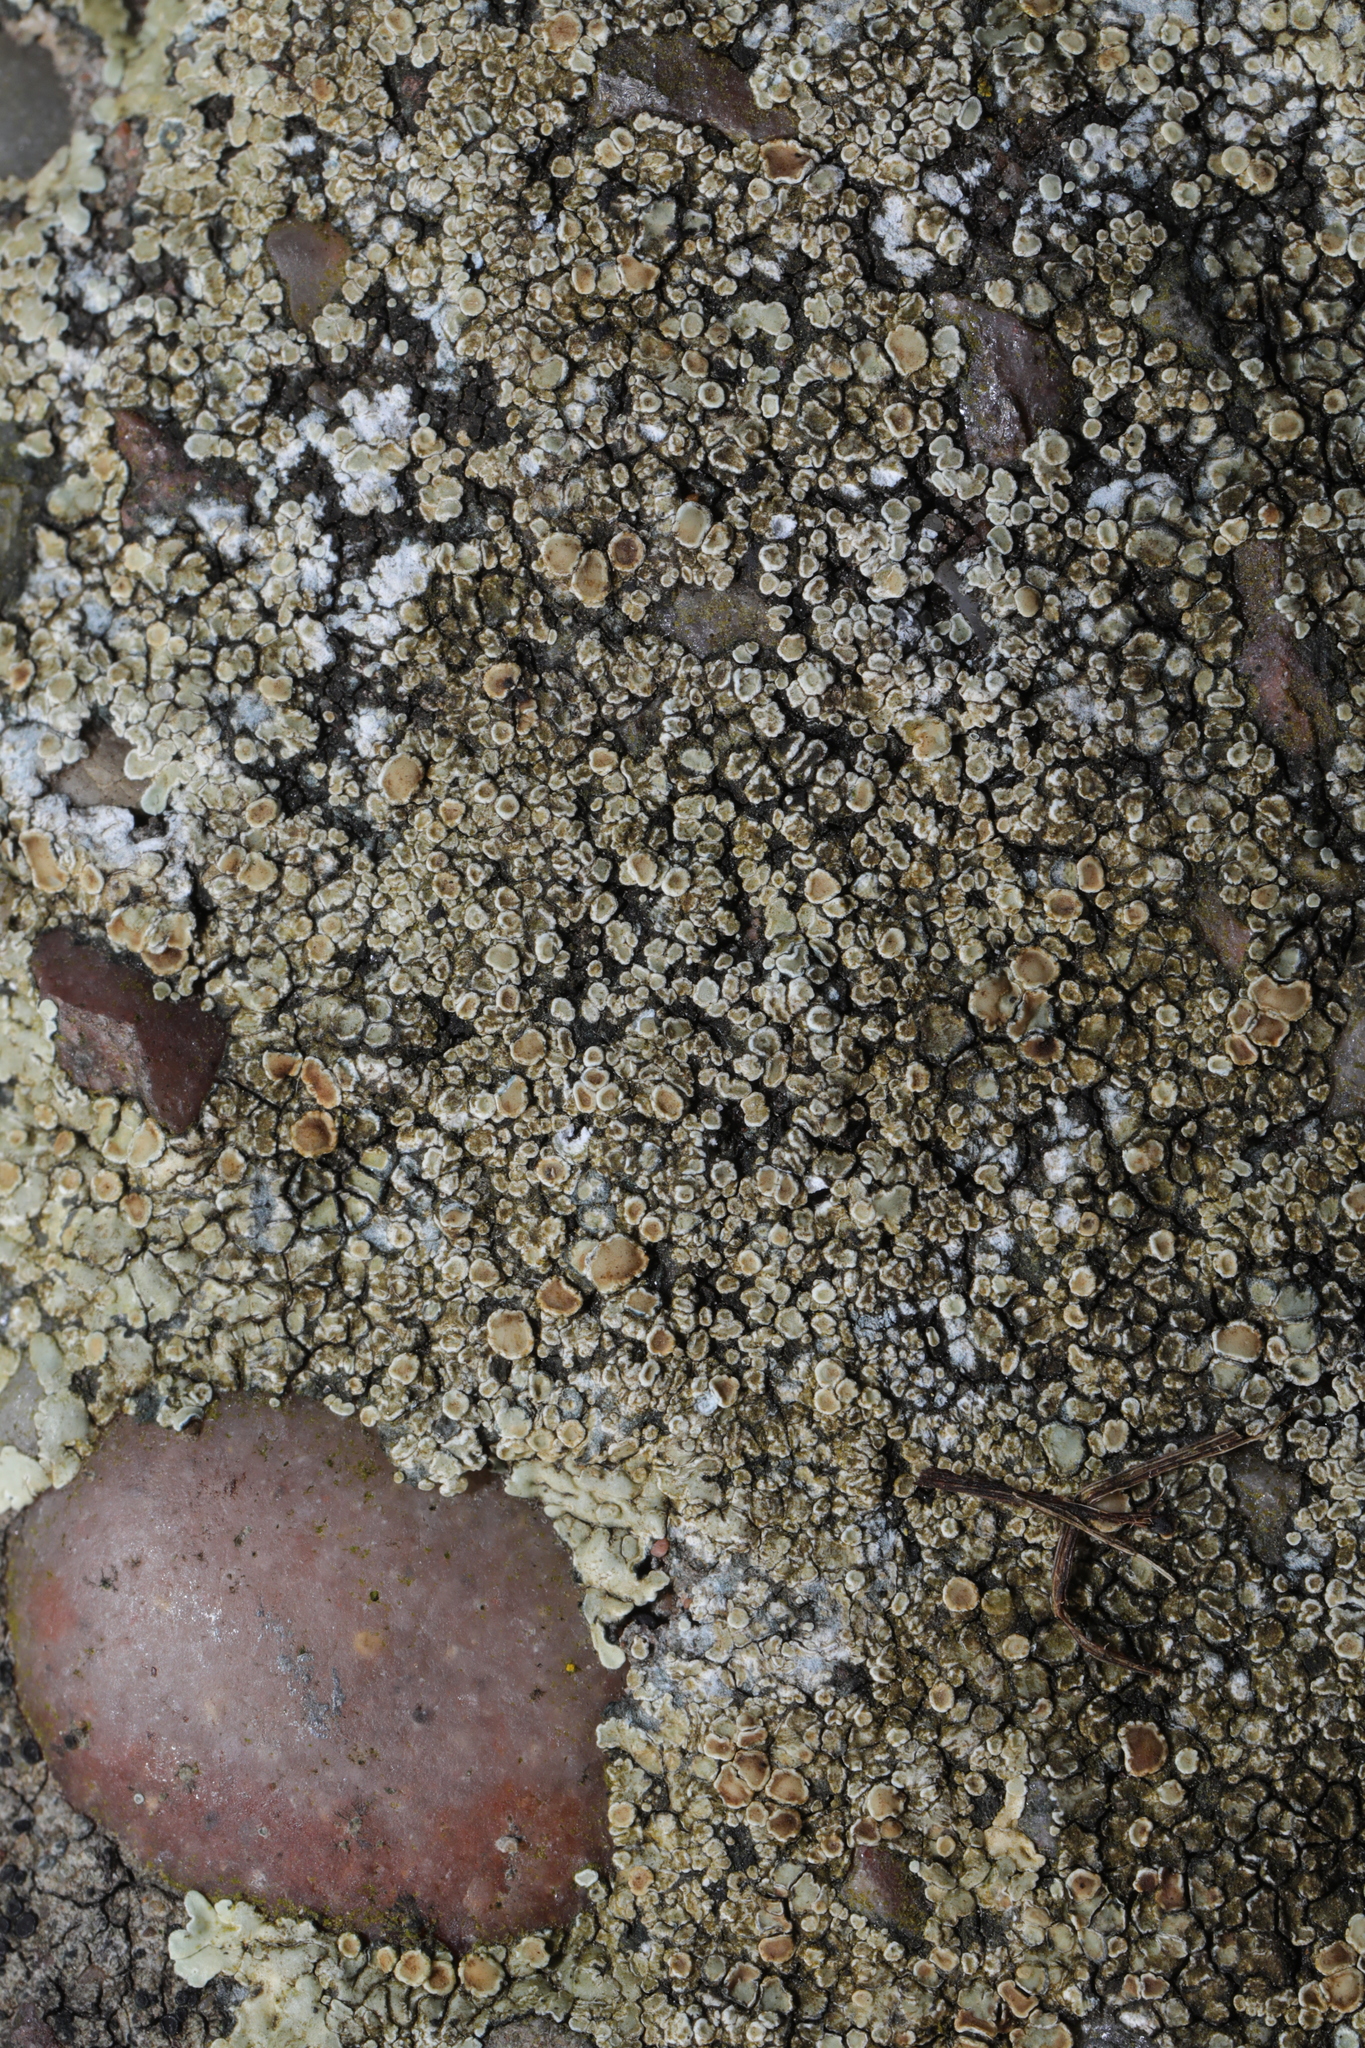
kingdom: Fungi
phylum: Ascomycota
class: Lecanoromycetes
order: Lecanorales
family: Lecanoraceae
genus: Protoparmeliopsis
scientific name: Protoparmeliopsis muralis
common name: Stonewall rim lichen
